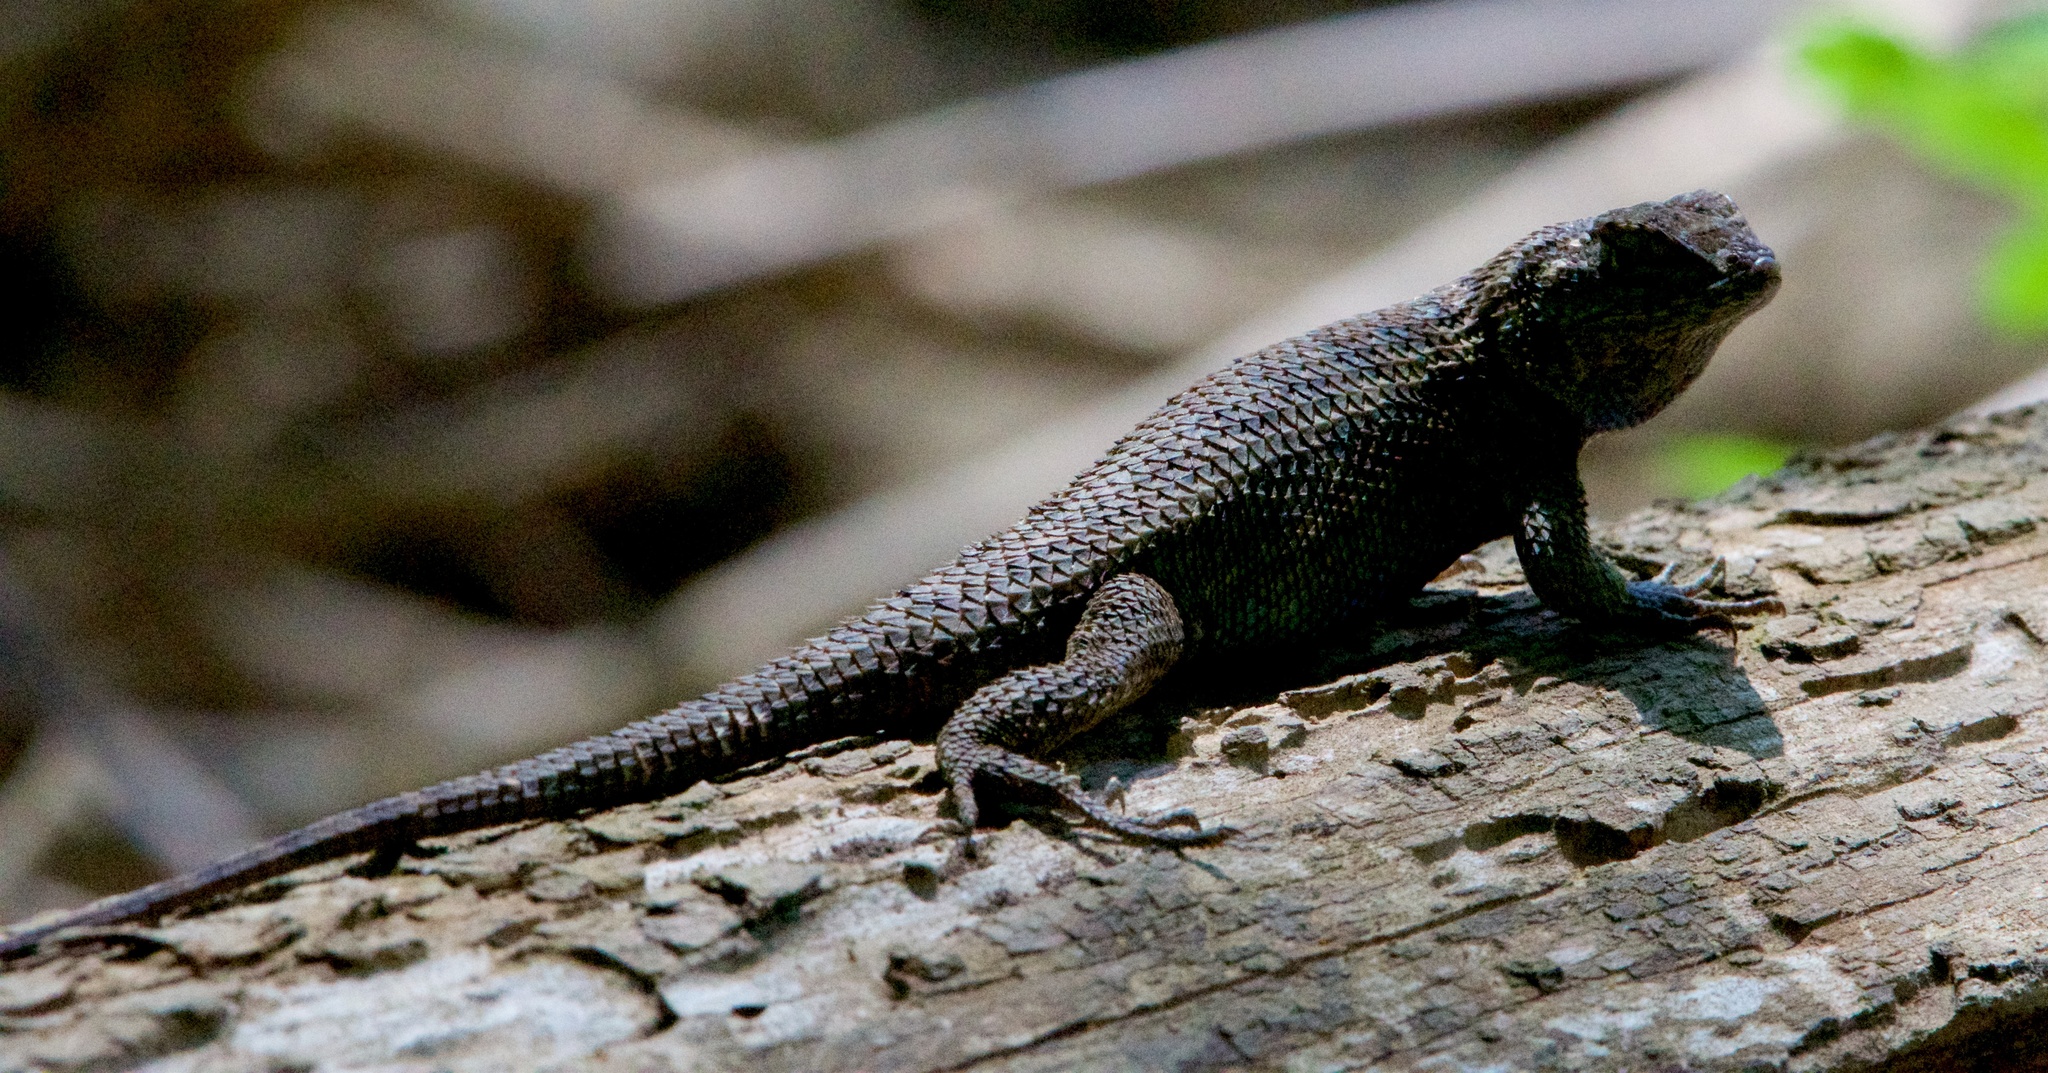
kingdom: Animalia
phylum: Chordata
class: Squamata
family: Phrynosomatidae
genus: Sceloporus
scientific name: Sceloporus occidentalis
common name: Western fence lizard
